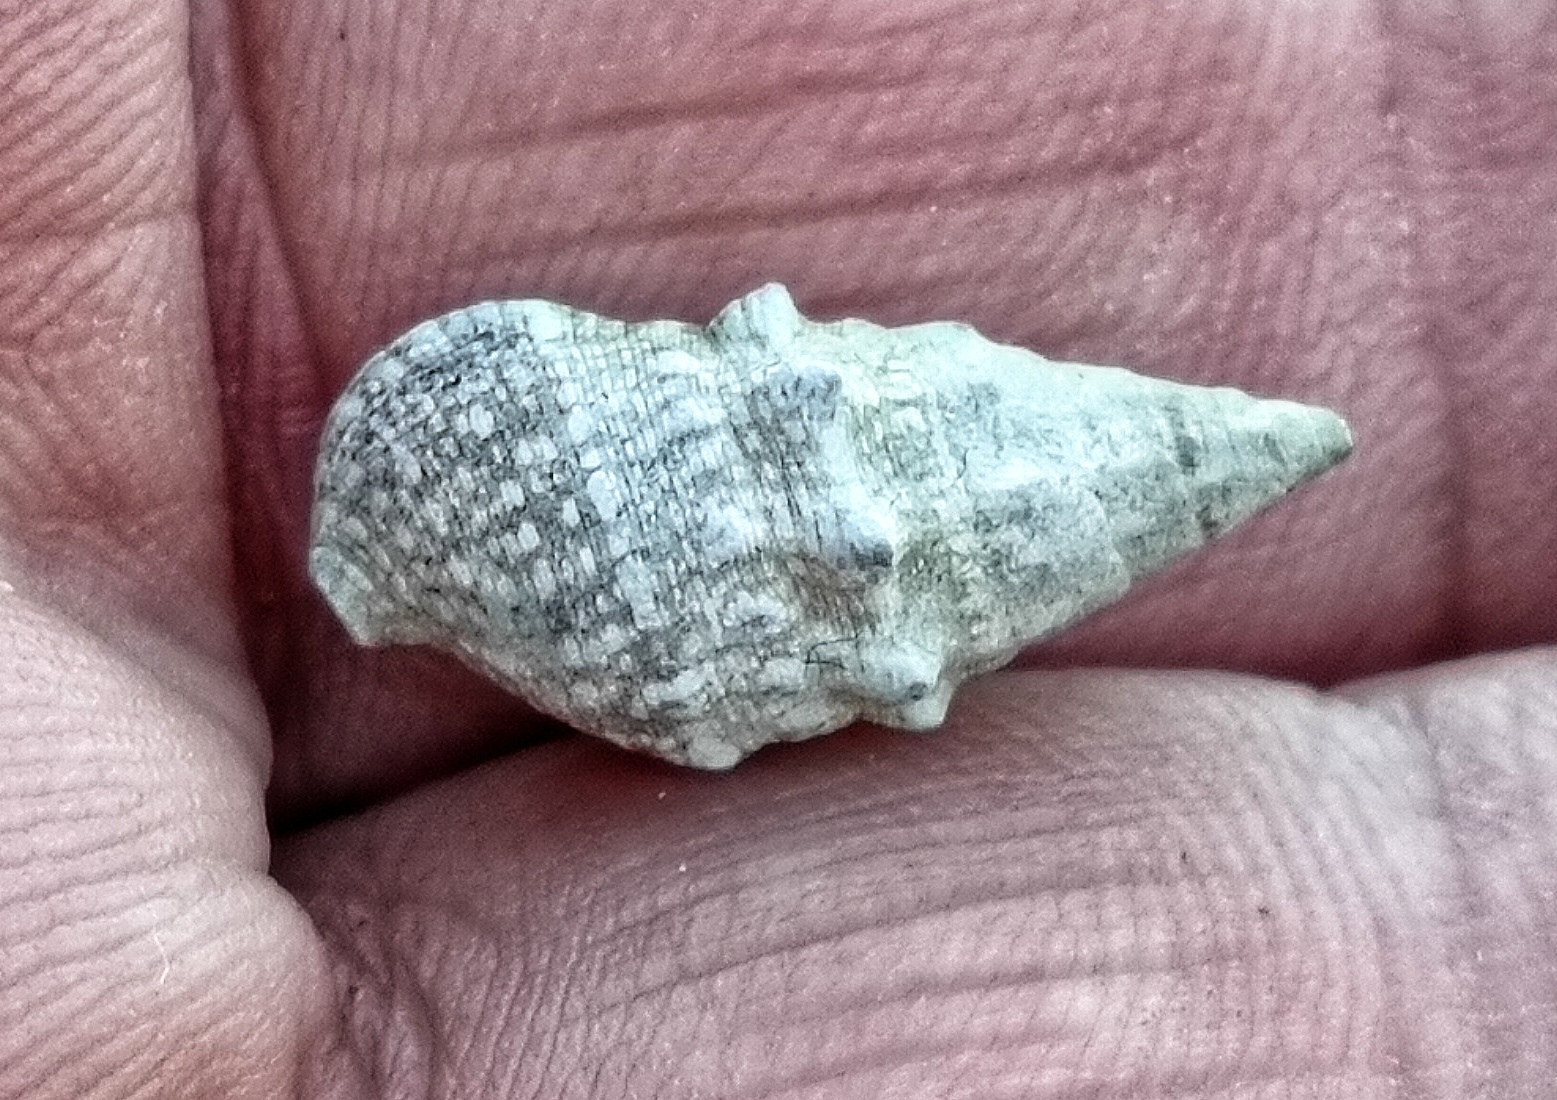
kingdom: Animalia
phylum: Mollusca
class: Gastropoda
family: Cerithiidae
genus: Cerithium
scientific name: Cerithium vulgatum
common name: European cerith
